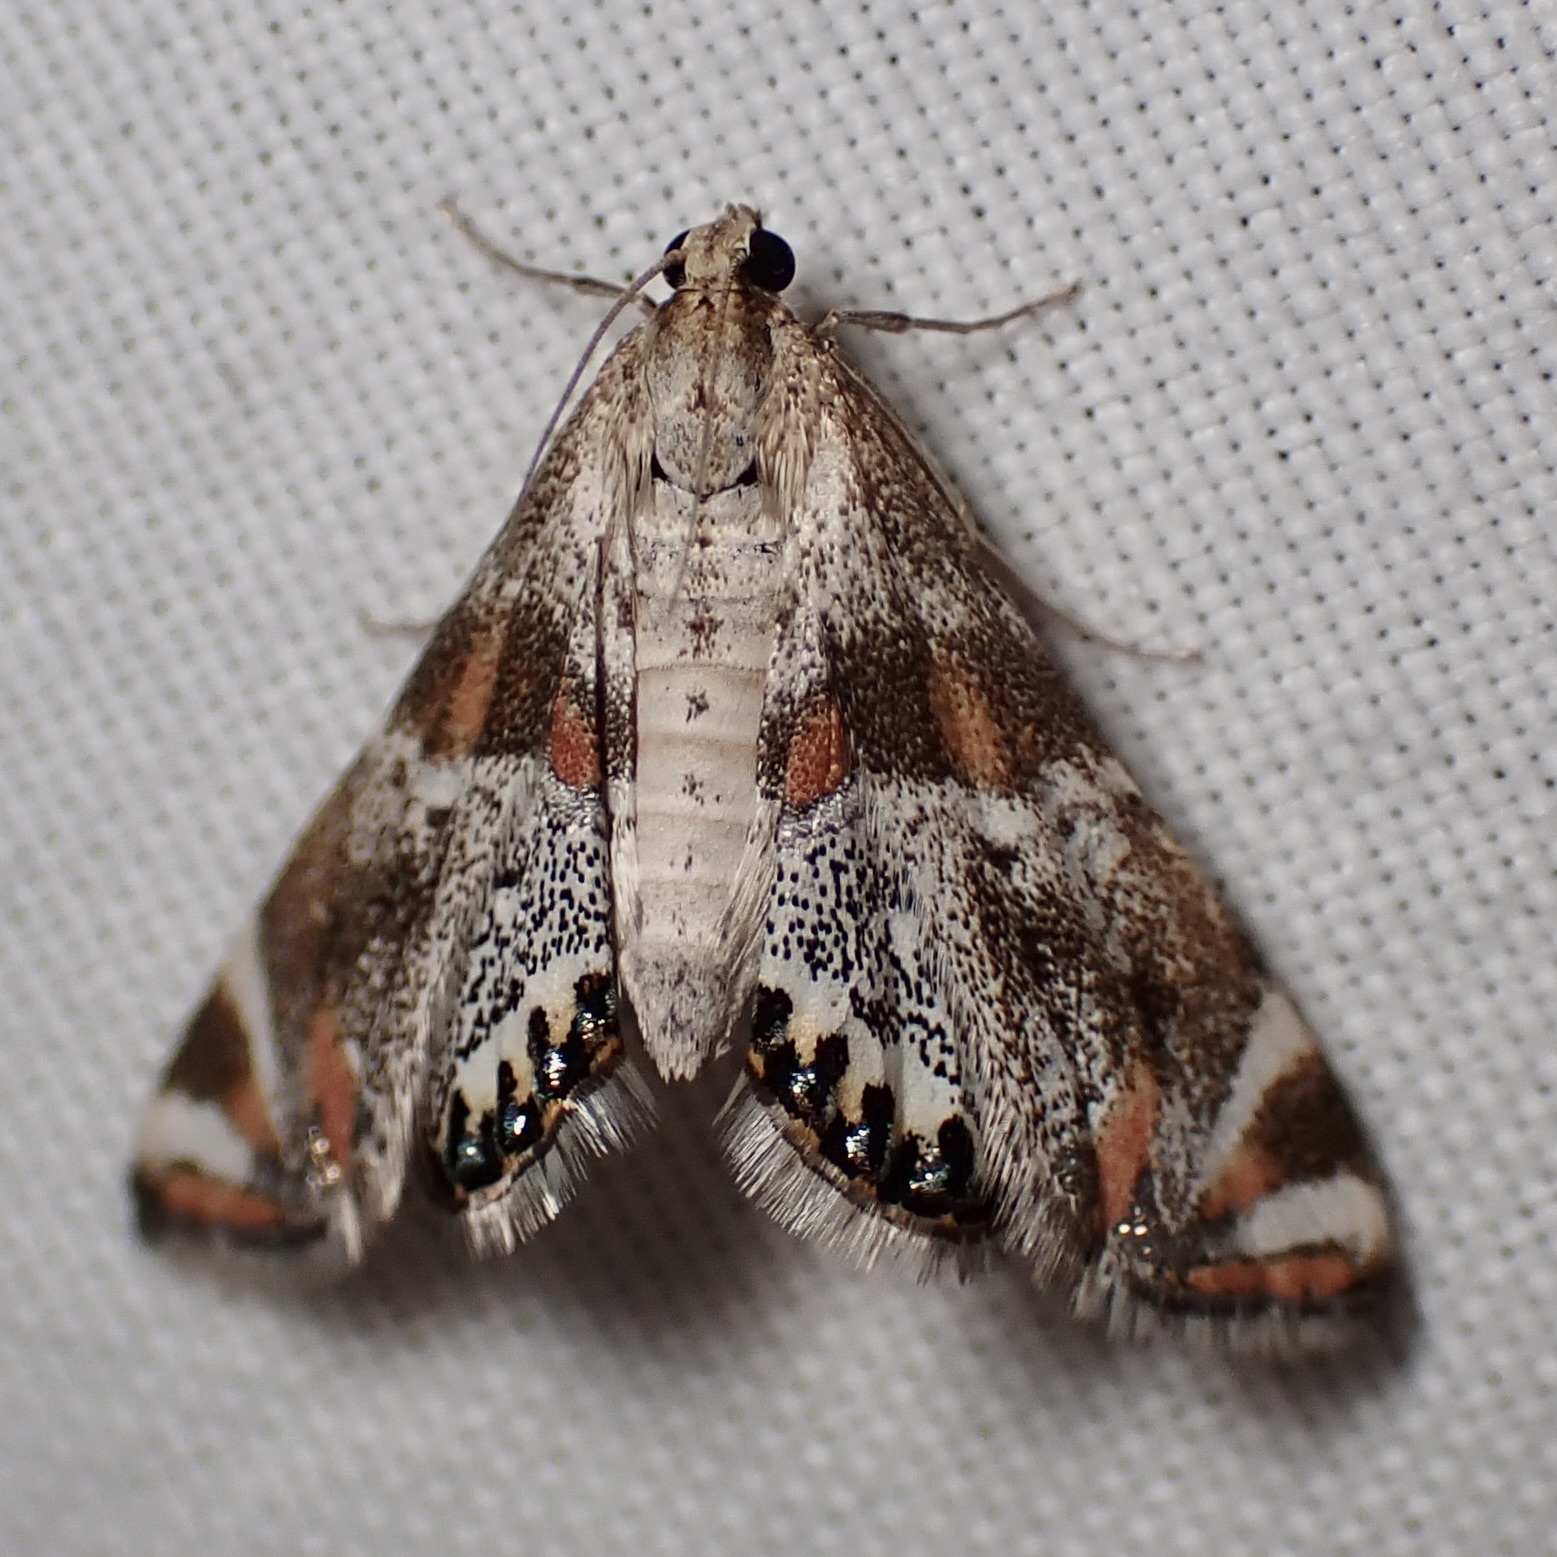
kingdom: Animalia
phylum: Arthropoda
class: Insecta
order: Lepidoptera
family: Crambidae
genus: Petrophila
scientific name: Petrophila jaliscalis
